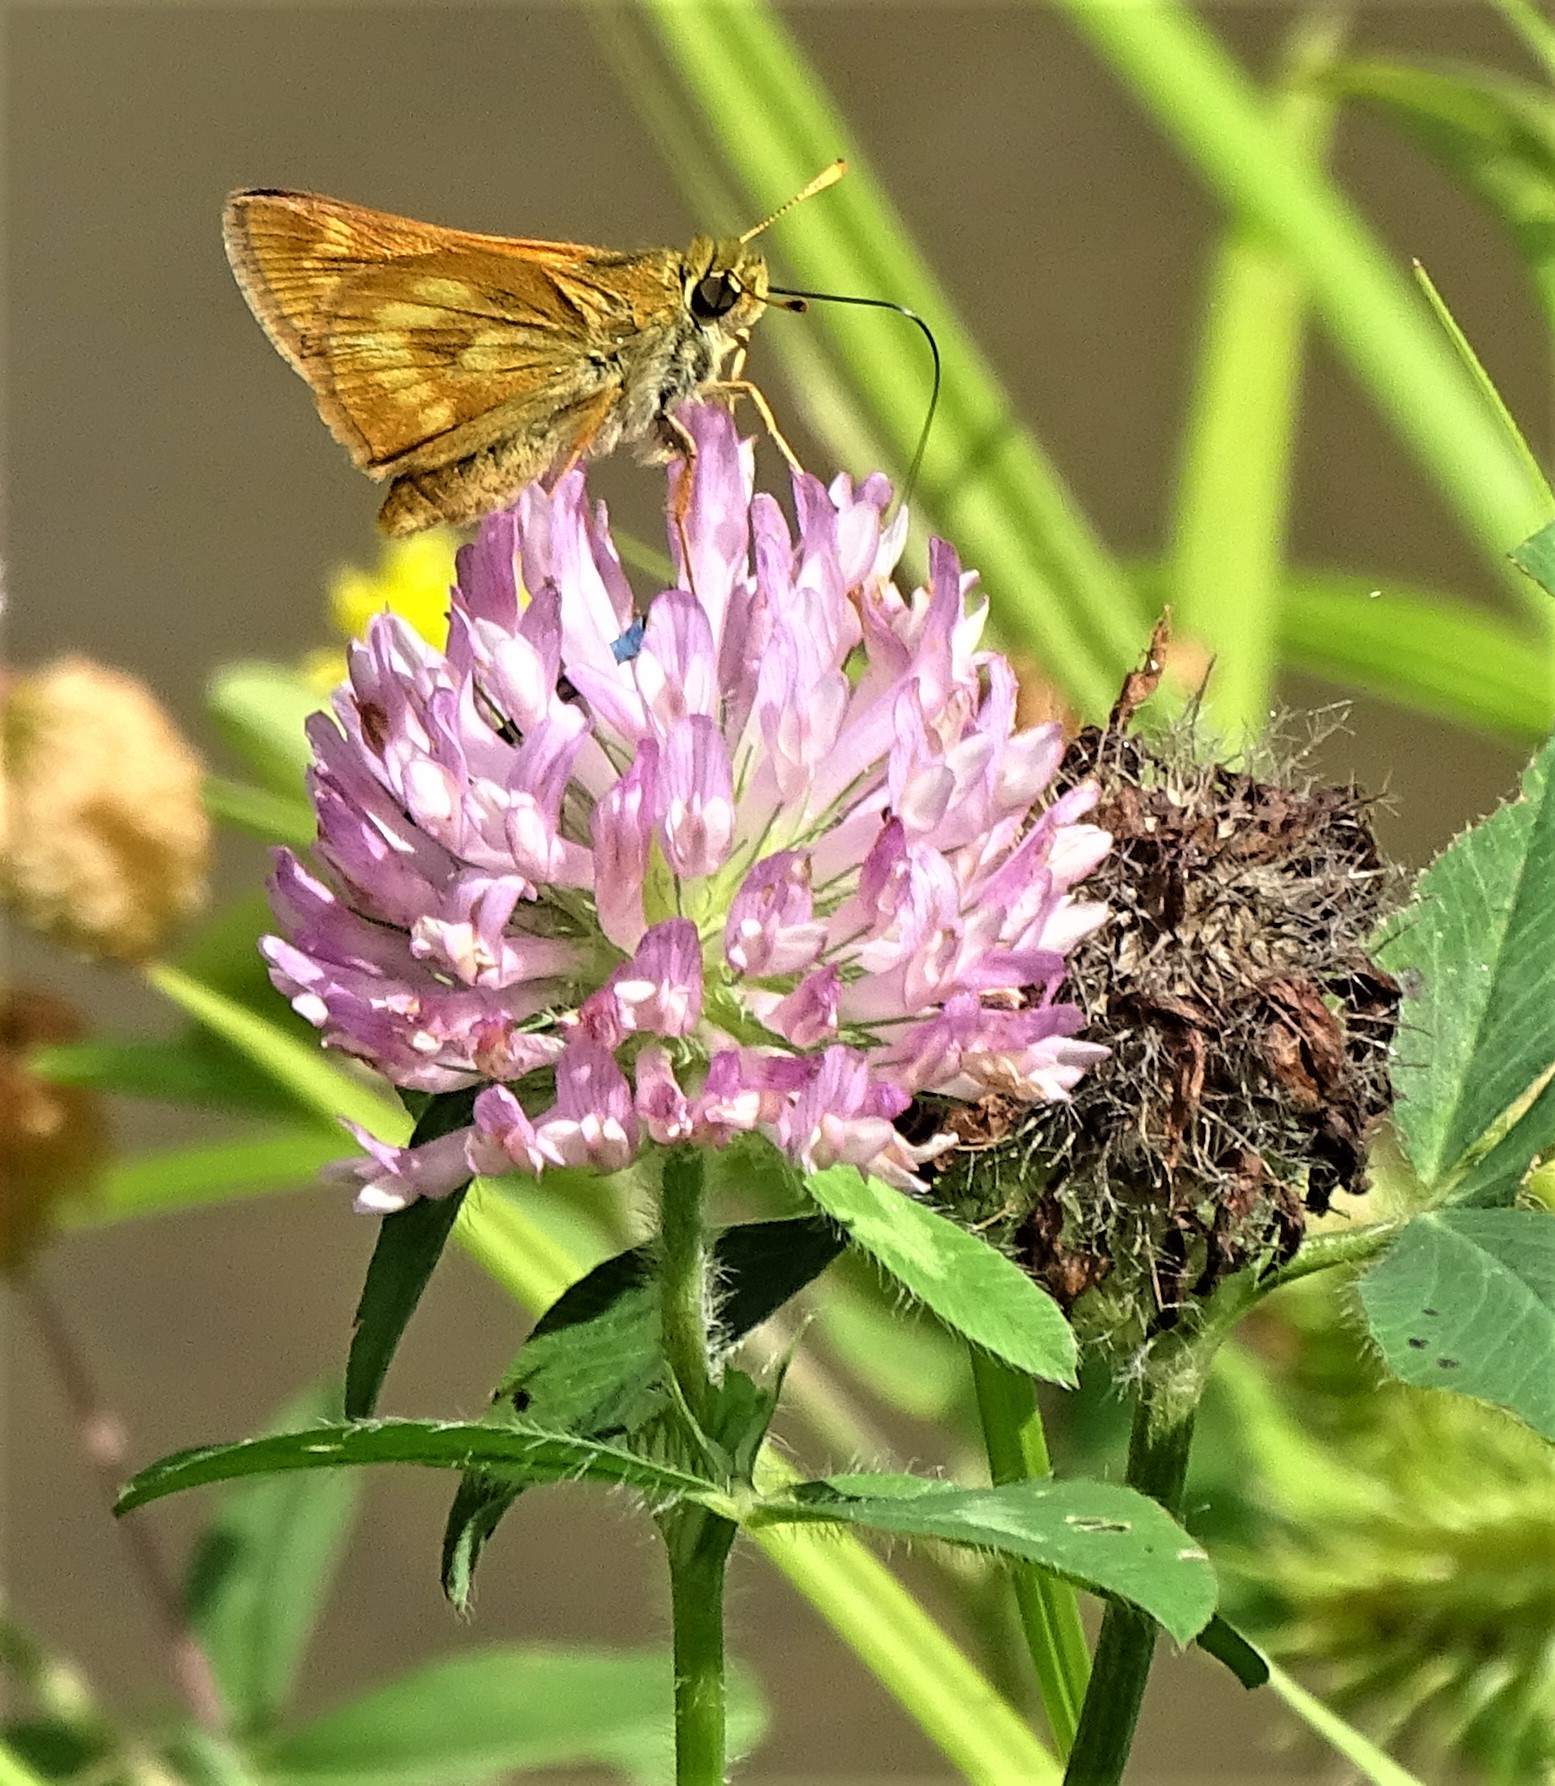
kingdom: Animalia
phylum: Arthropoda
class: Insecta
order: Lepidoptera
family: Hesperiidae
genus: Polites
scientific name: Polites mystic
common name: Long dash
